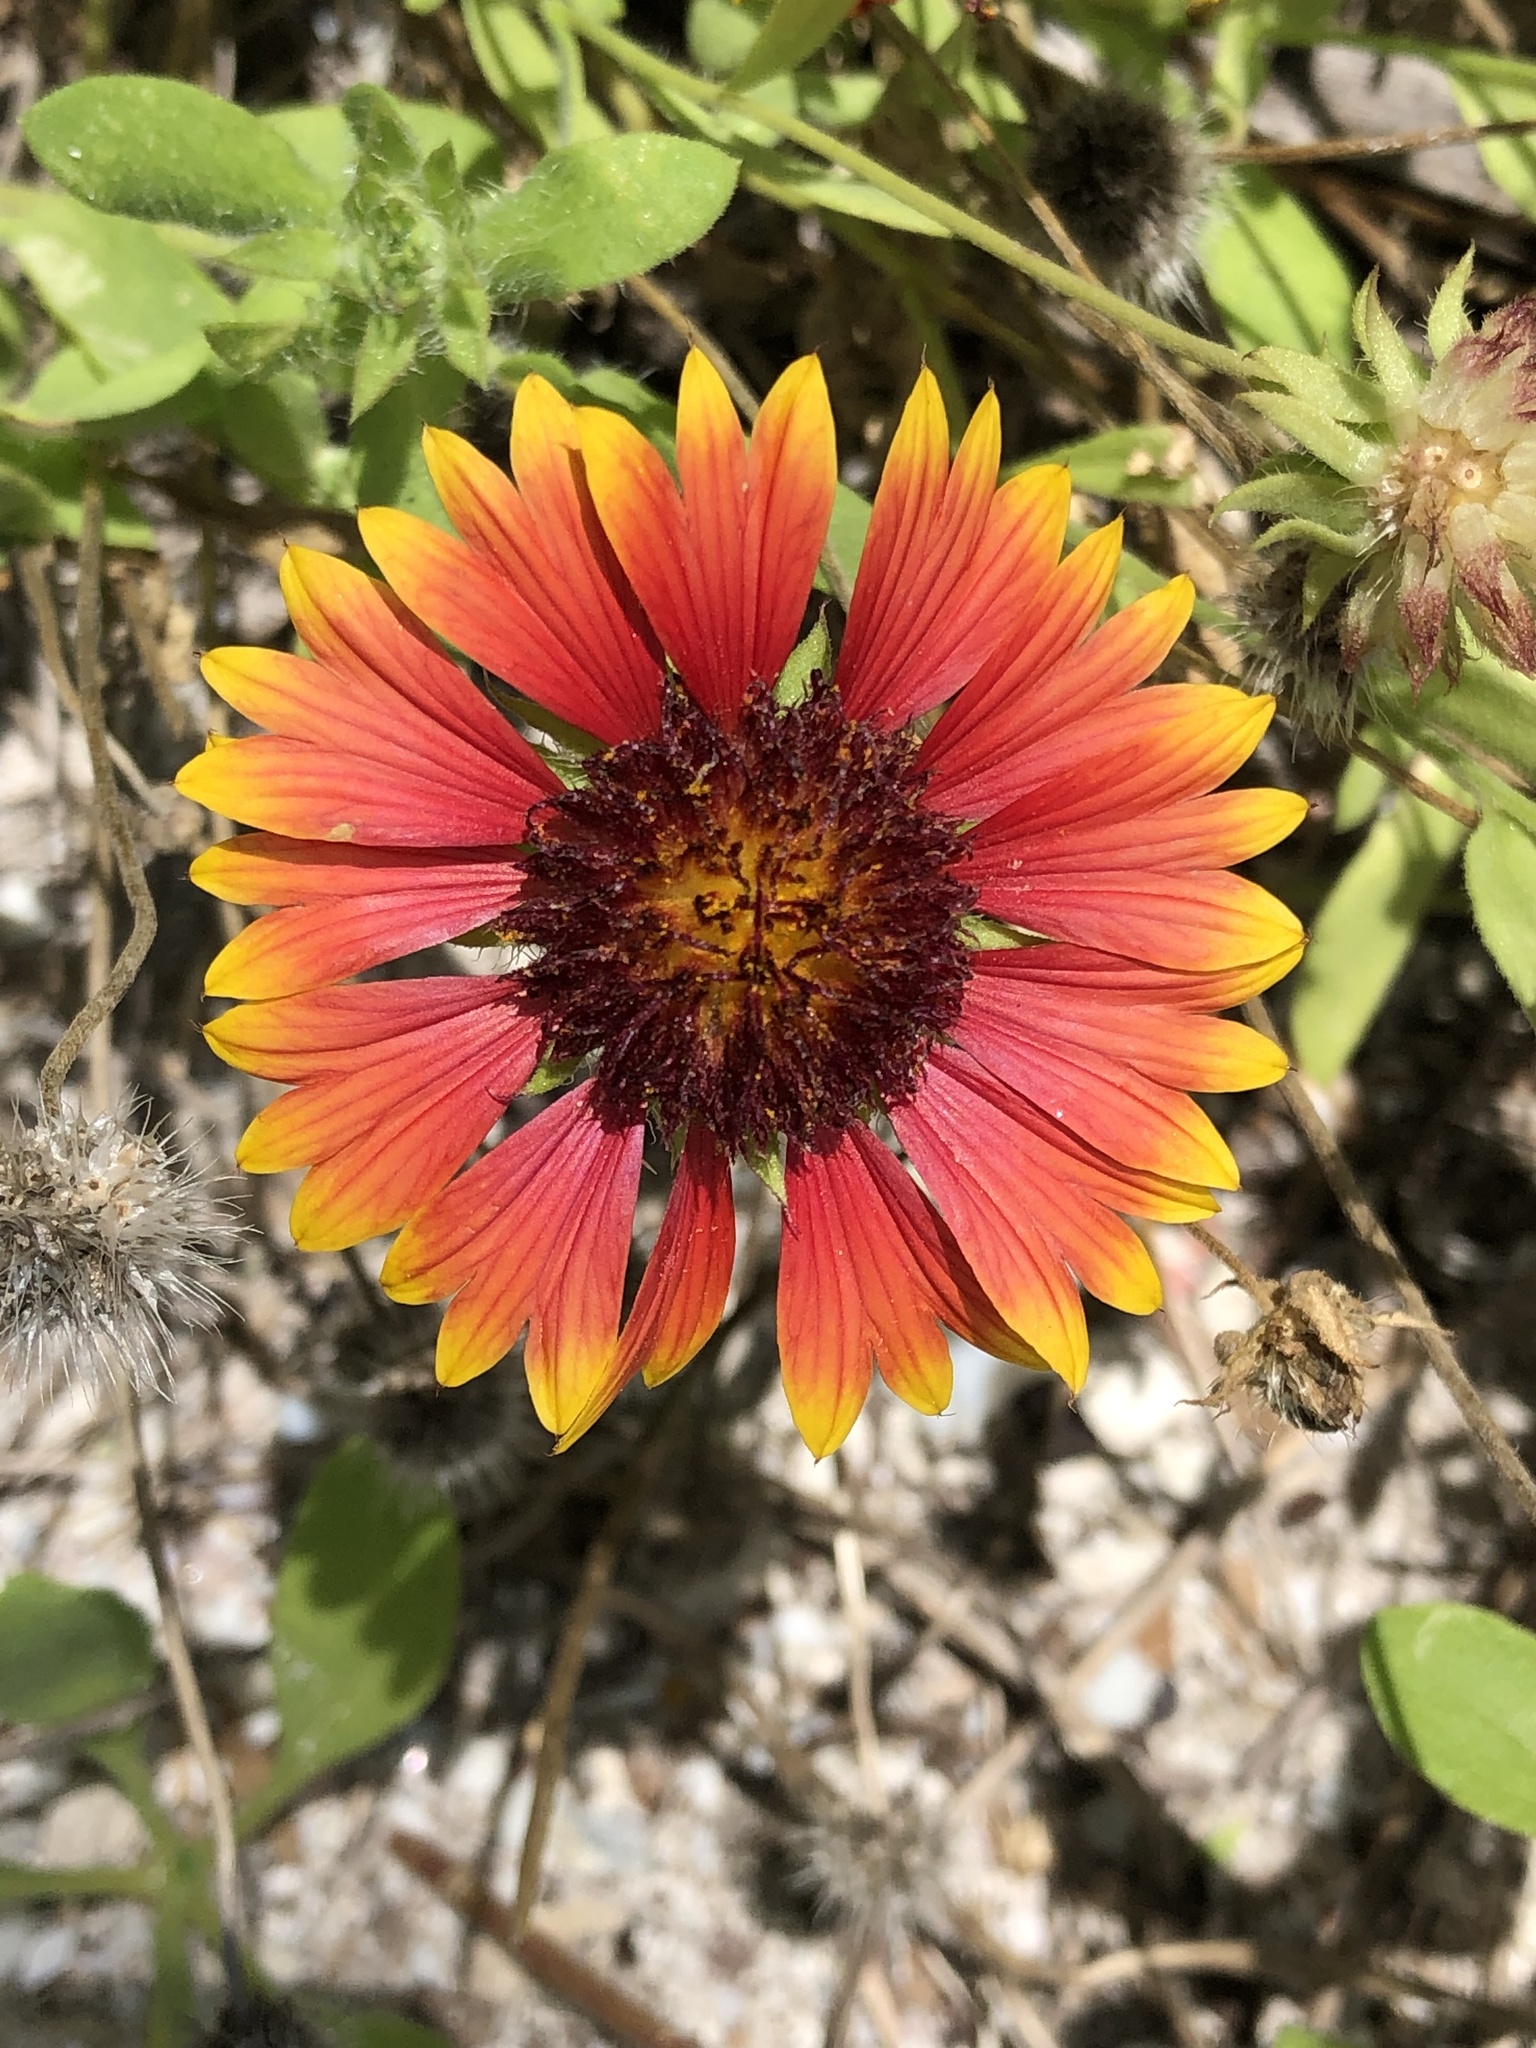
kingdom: Plantae
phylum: Tracheophyta
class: Magnoliopsida
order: Asterales
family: Asteraceae
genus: Gaillardia
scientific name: Gaillardia pulchella
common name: Firewheel
